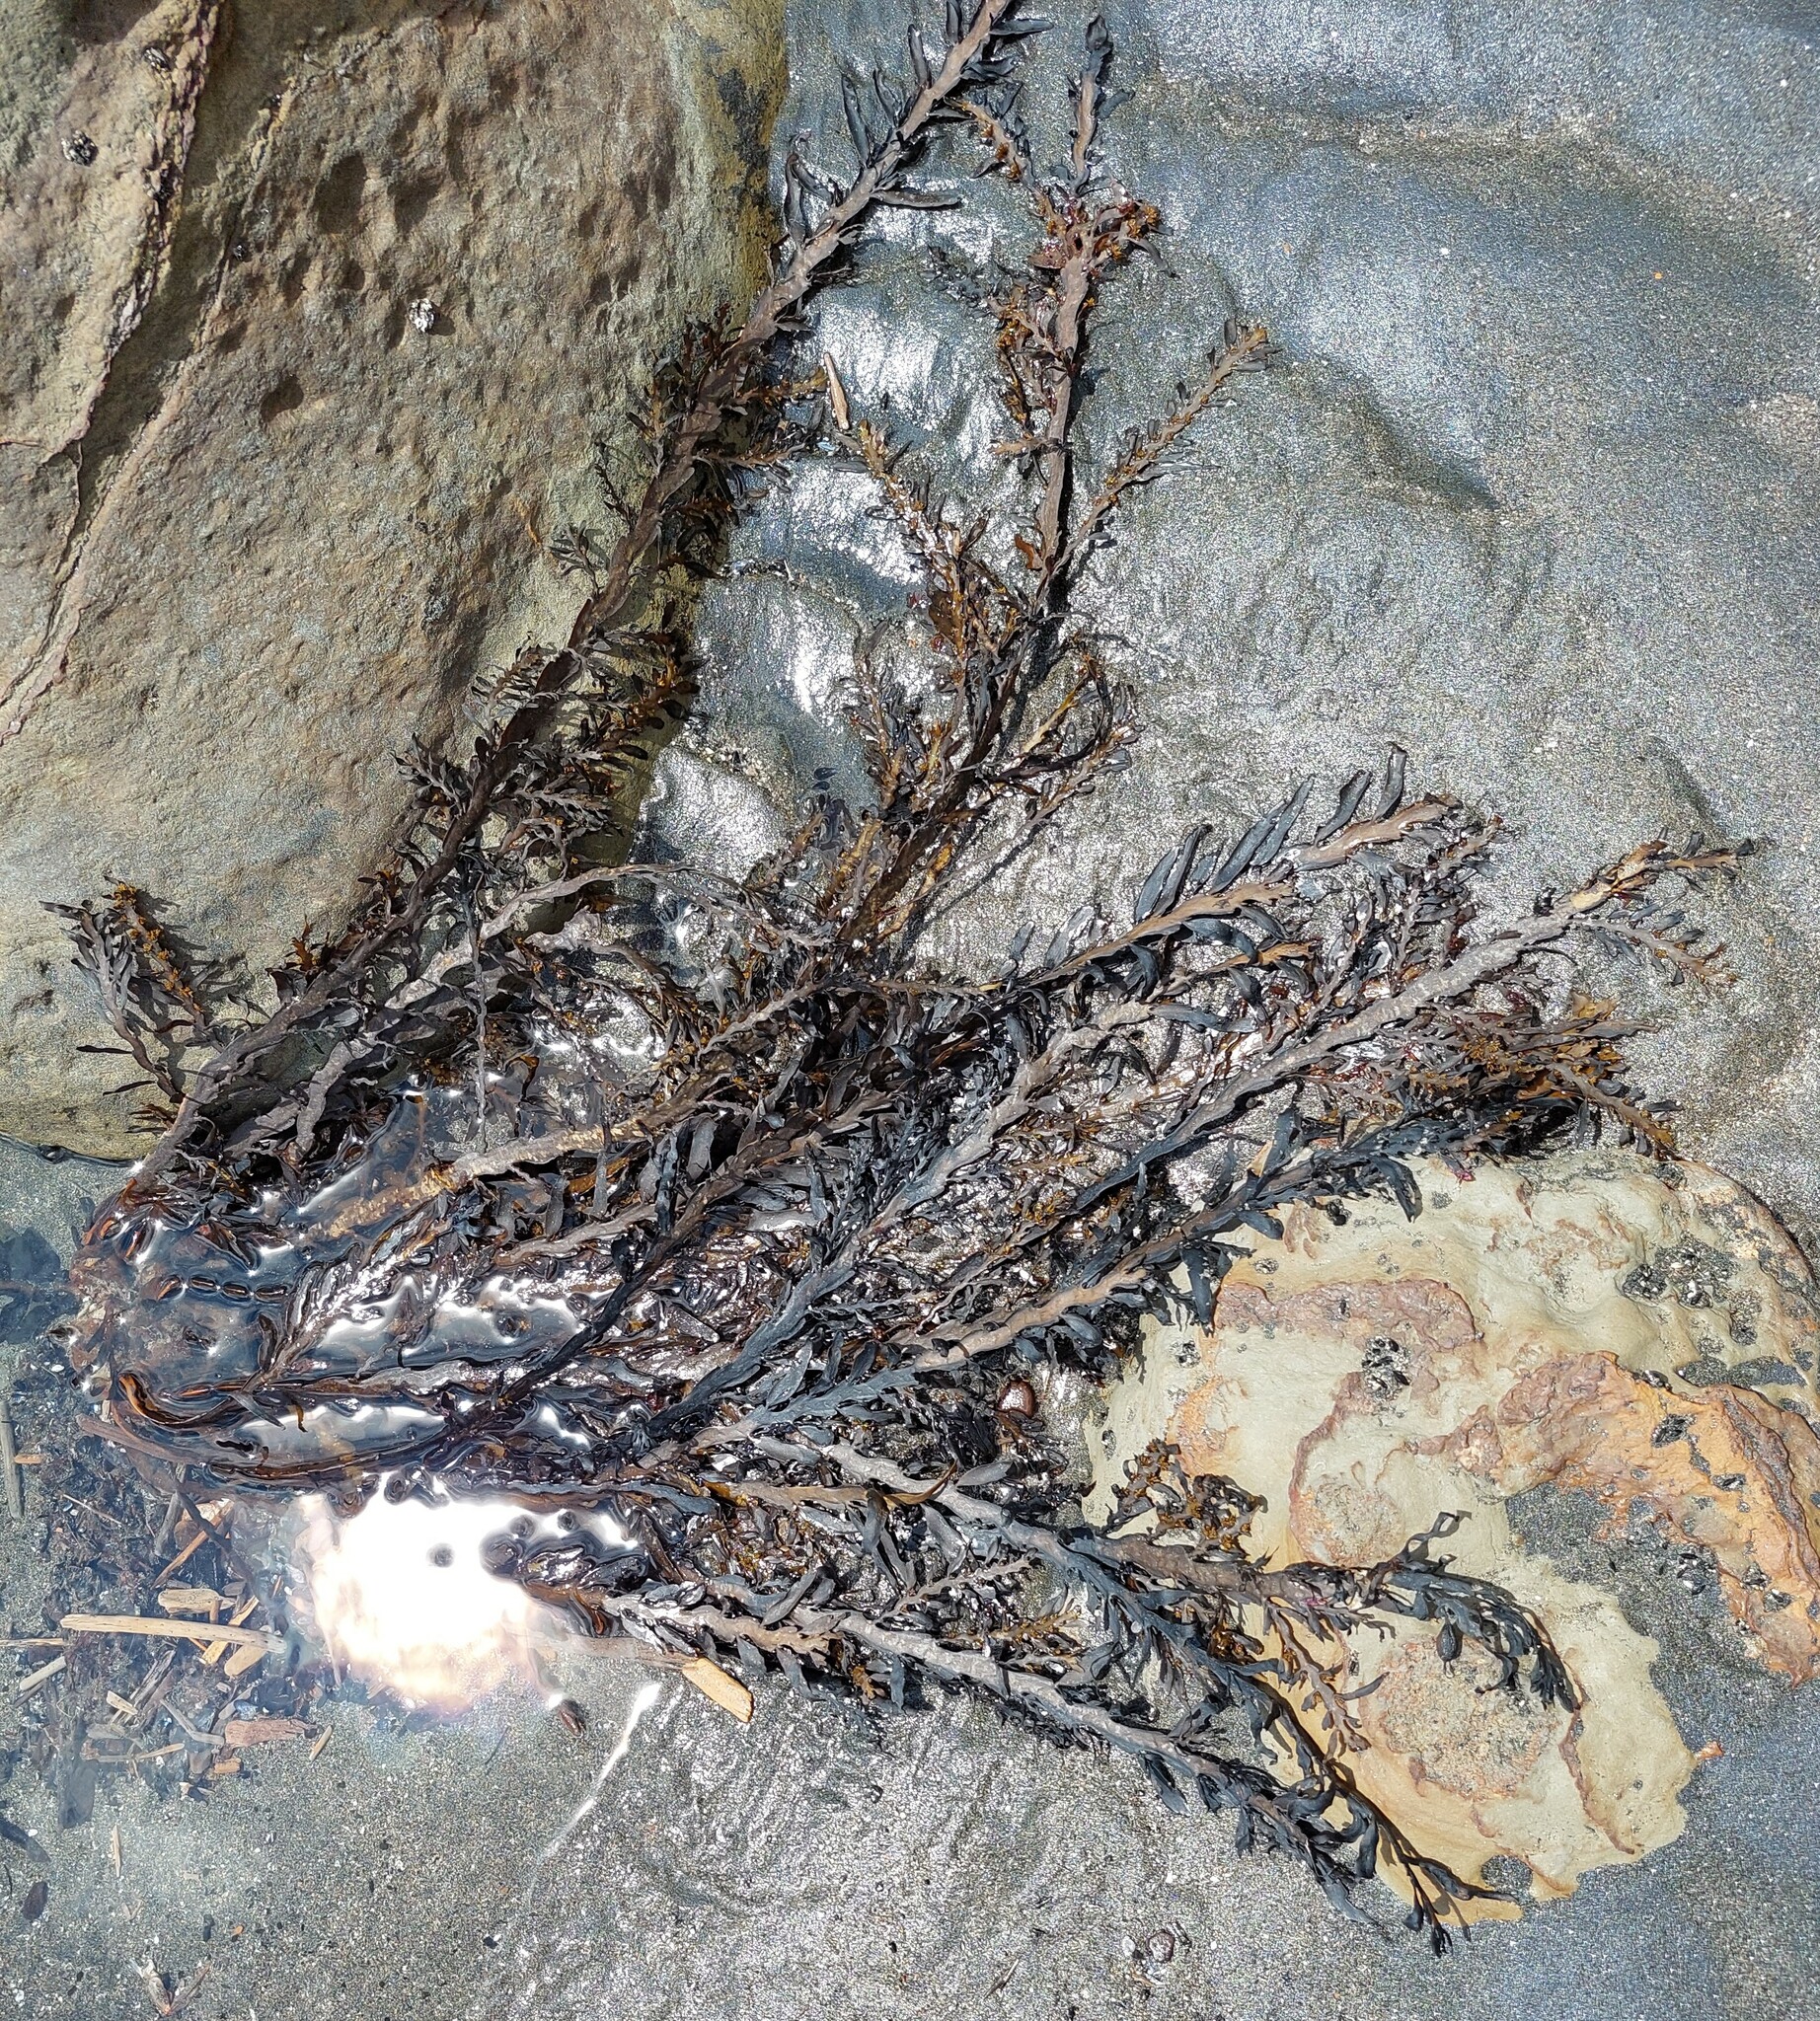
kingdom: Chromista
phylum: Ochrophyta
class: Phaeophyceae
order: Fucales
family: Sargassaceae
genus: Carpophyllum
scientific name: Carpophyllum maschalocarpum
